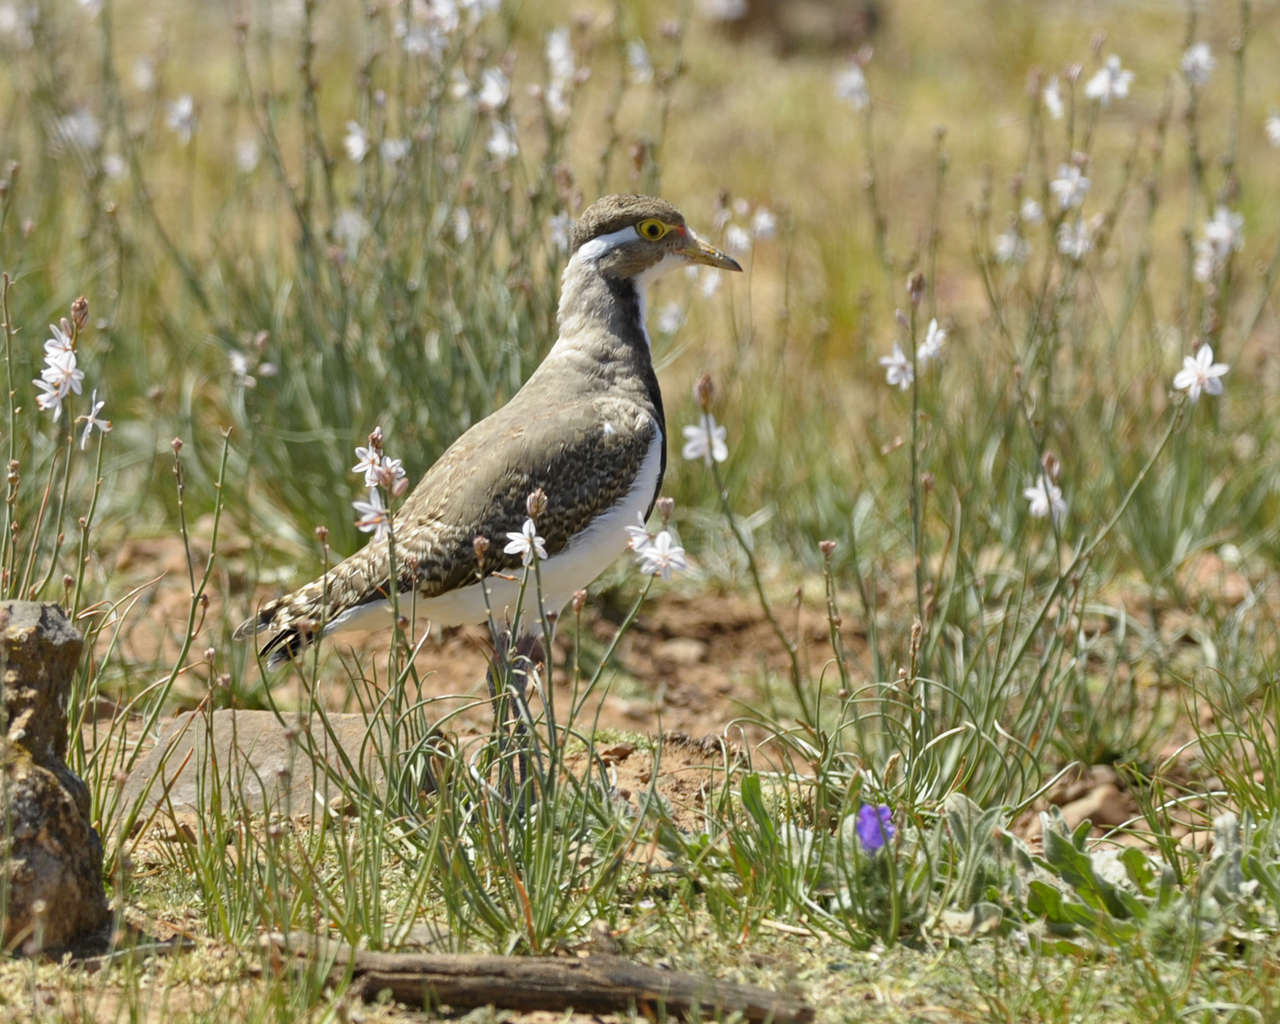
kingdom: Animalia
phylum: Chordata
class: Aves
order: Charadriiformes
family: Charadriidae
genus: Vanellus
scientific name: Vanellus tricolor
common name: Banded lapwing
